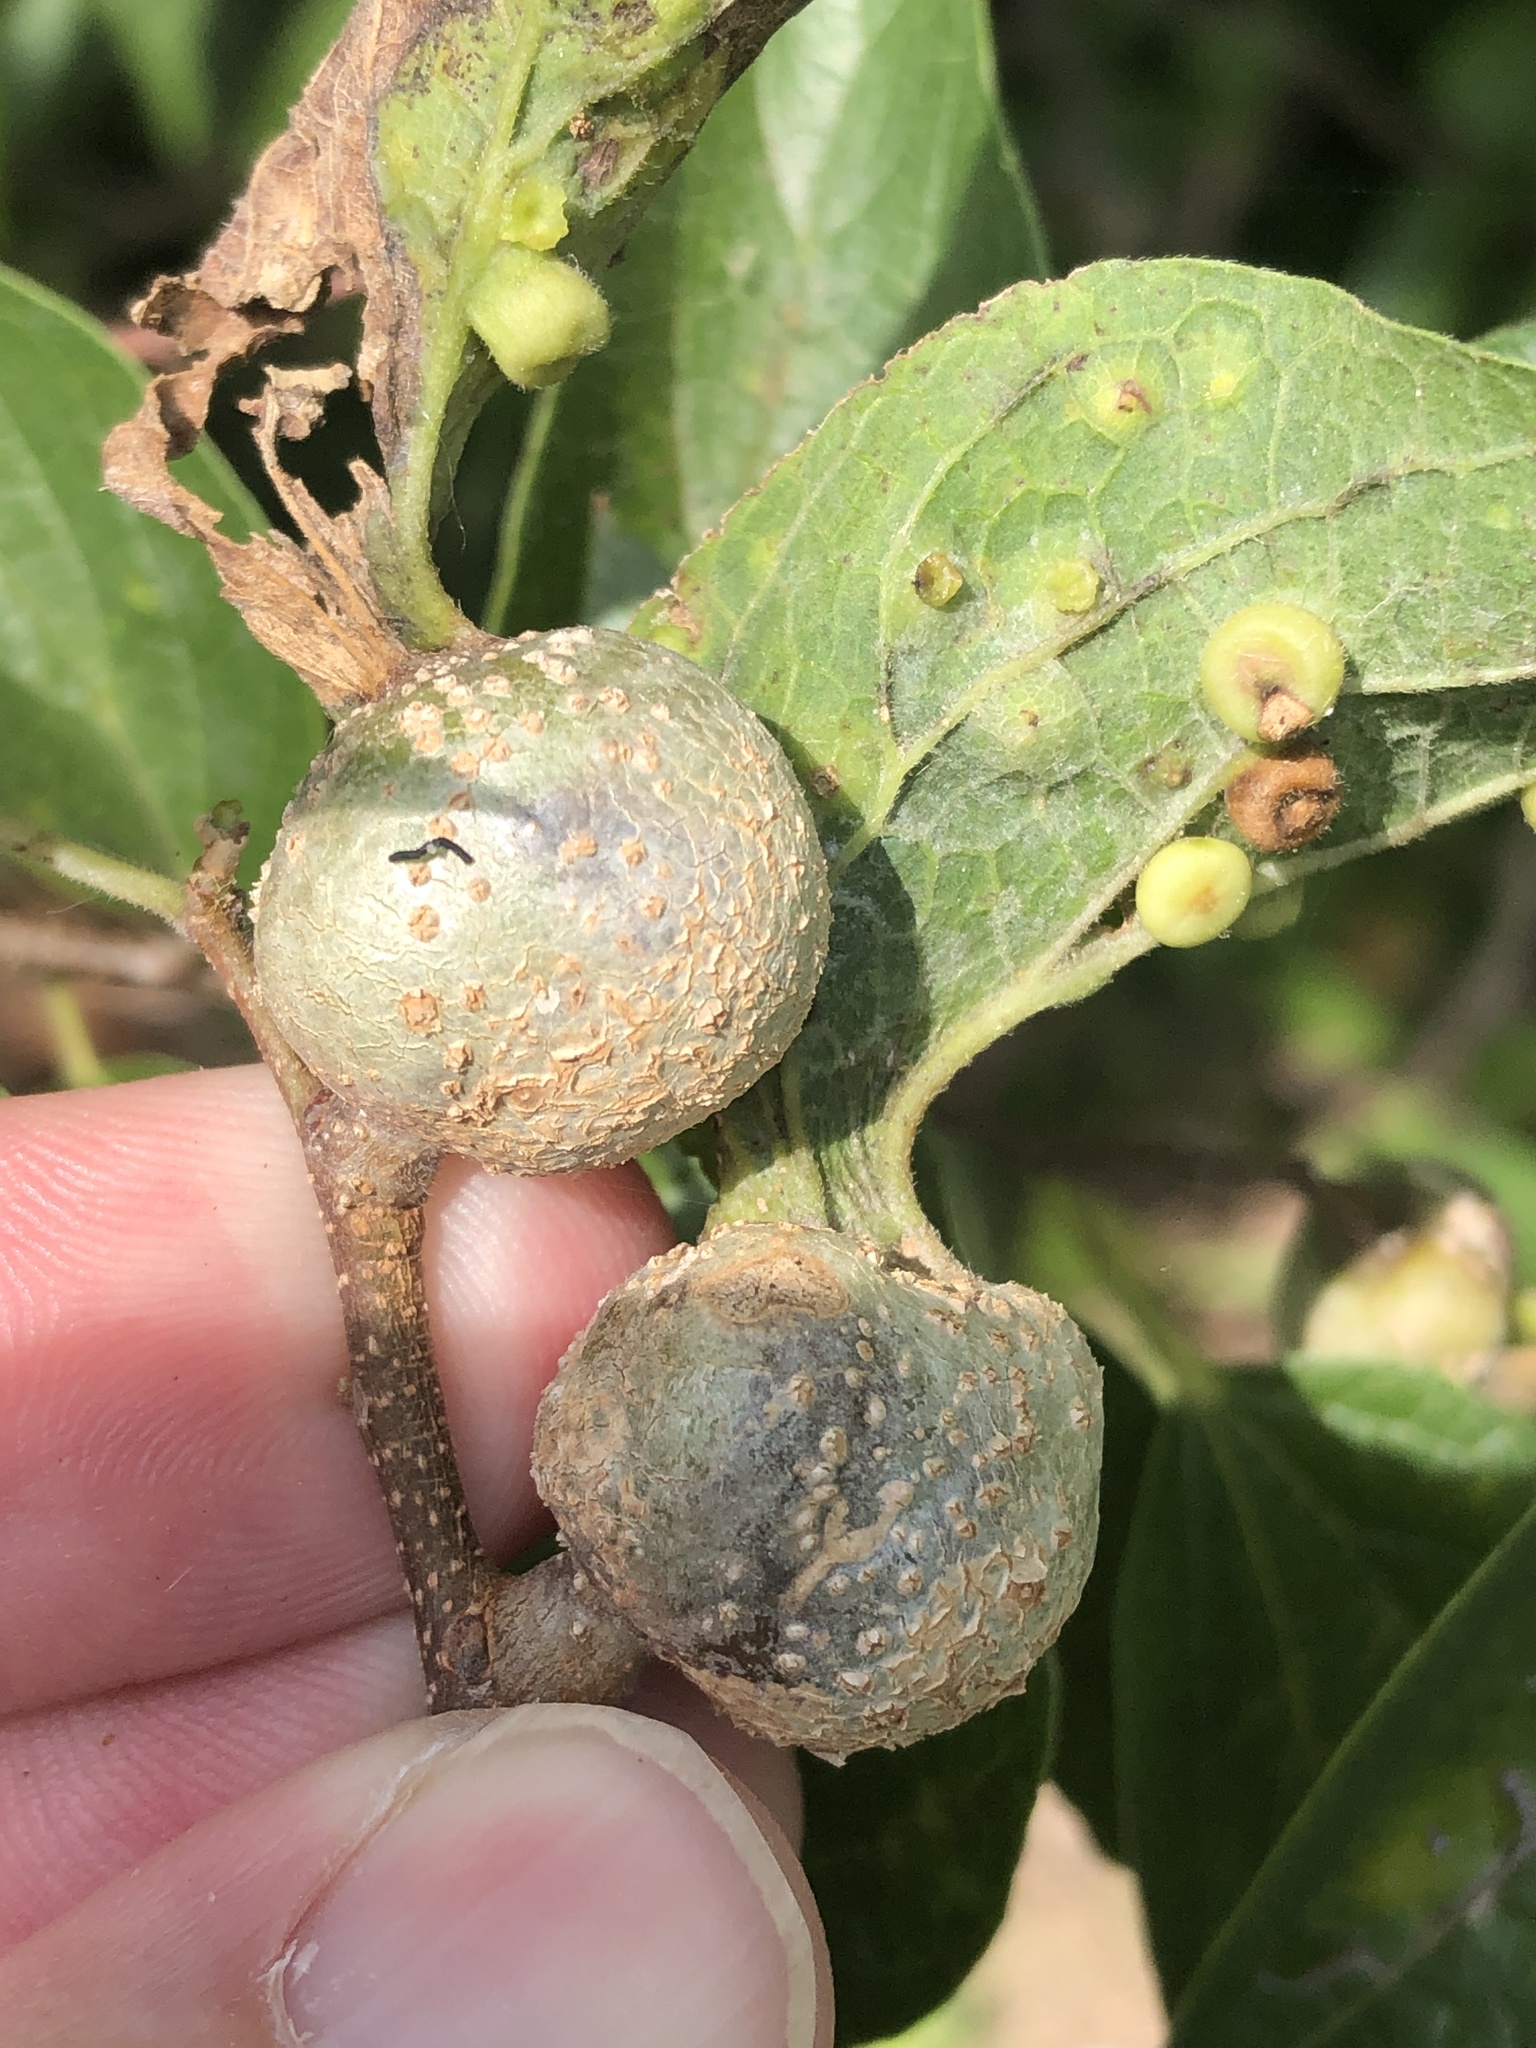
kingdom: Animalia
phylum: Arthropoda
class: Insecta
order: Hemiptera
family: Aphalaridae
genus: Pachypsylla
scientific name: Pachypsylla venusta
